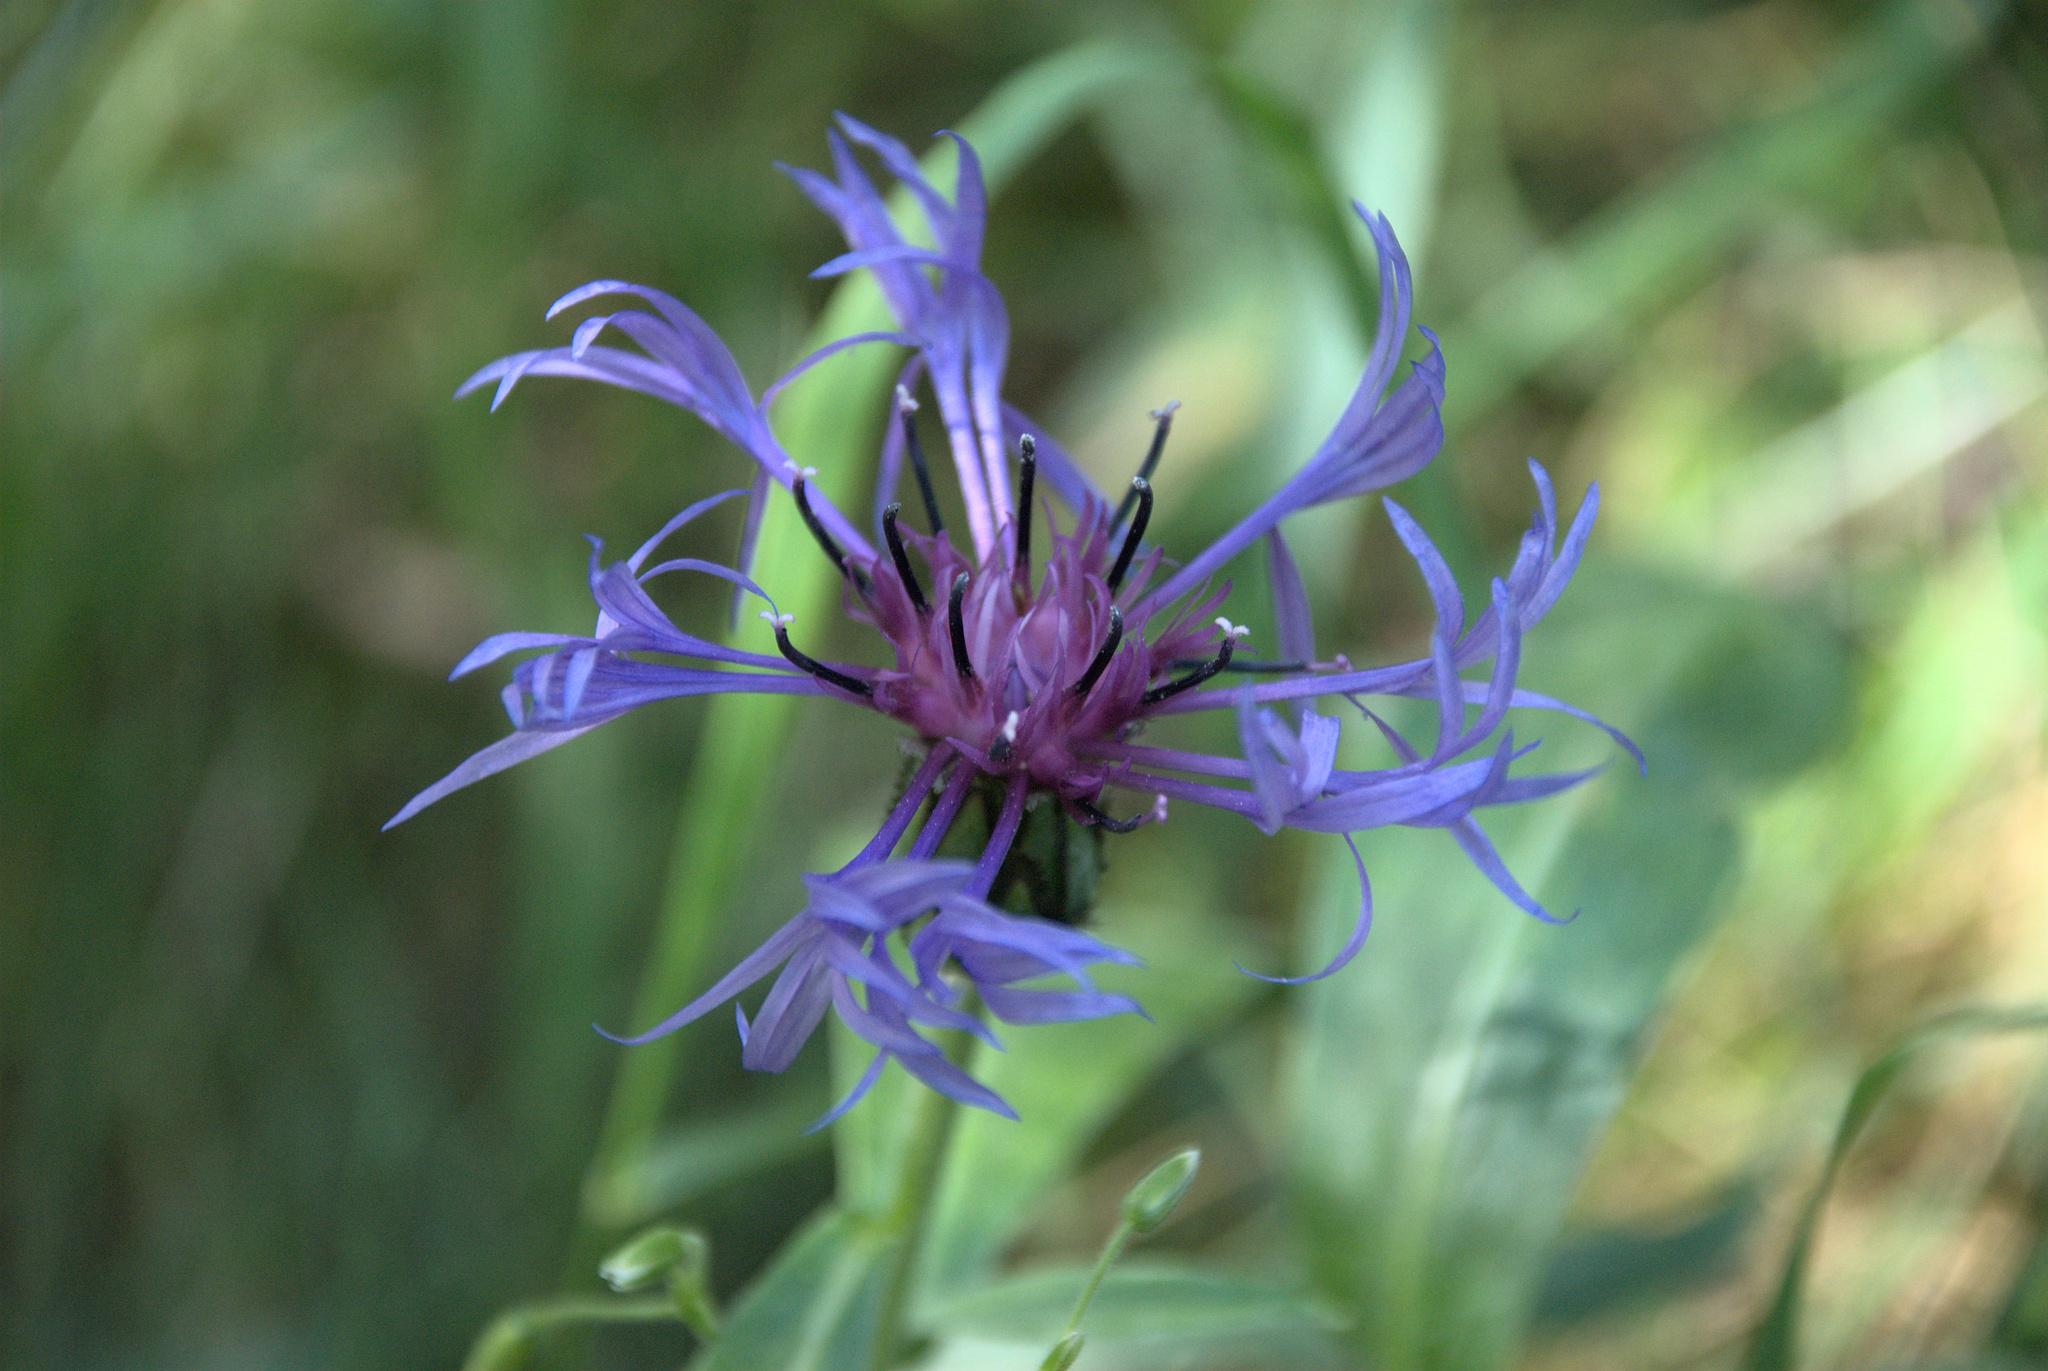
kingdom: Plantae
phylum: Tracheophyta
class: Magnoliopsida
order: Asterales
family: Asteraceae
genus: Centaurea
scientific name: Centaurea montana
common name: Perennial cornflower
